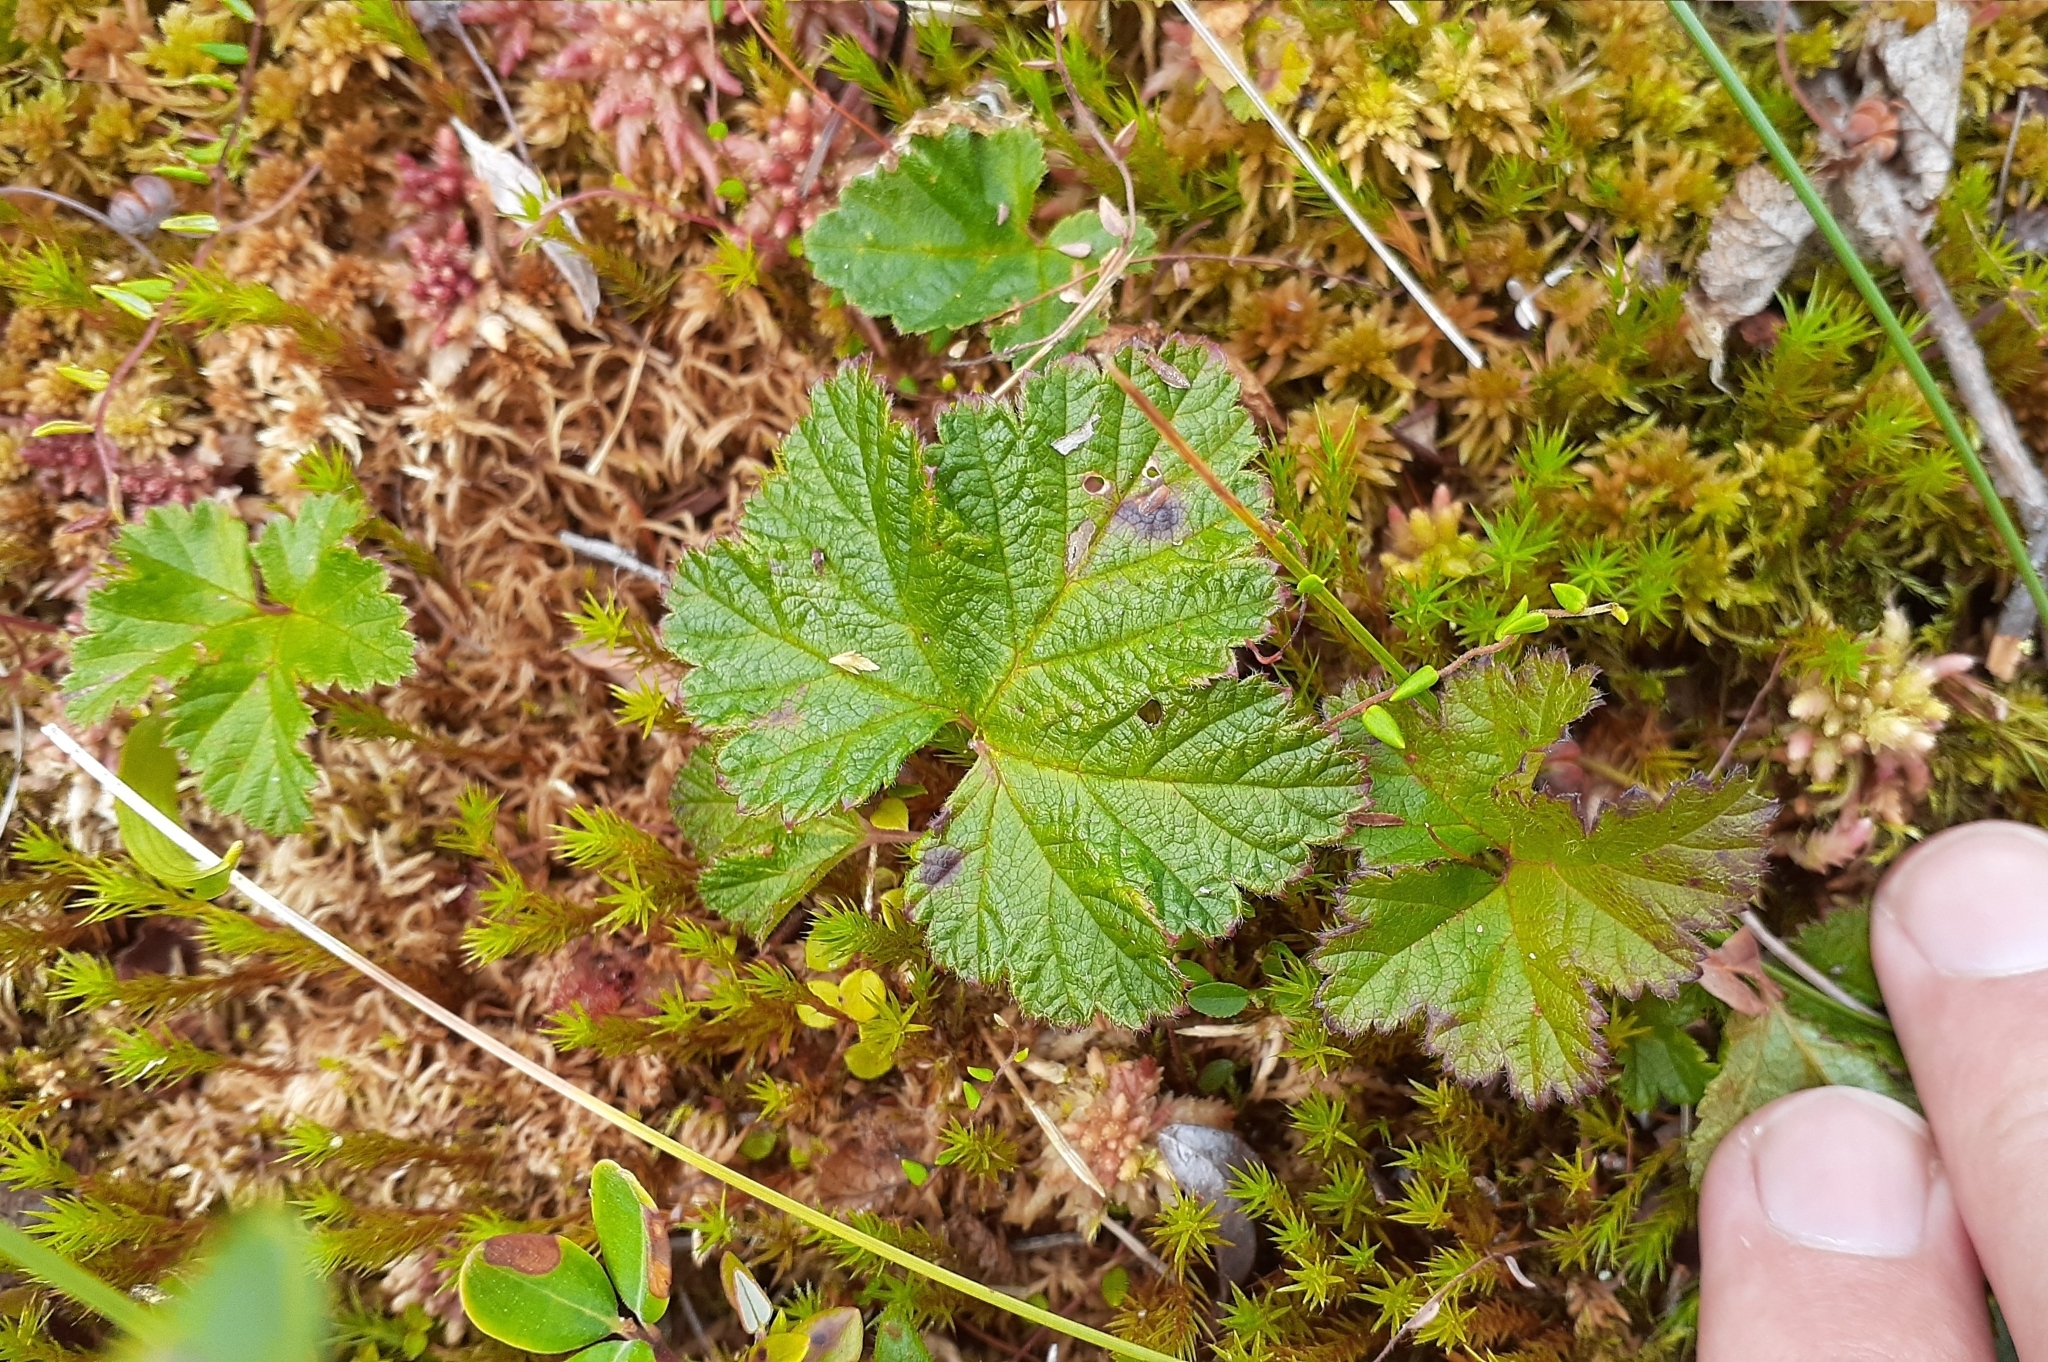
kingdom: Plantae
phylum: Tracheophyta
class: Magnoliopsida
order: Rosales
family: Rosaceae
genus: Rubus
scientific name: Rubus chamaemorus
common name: Cloudberry
